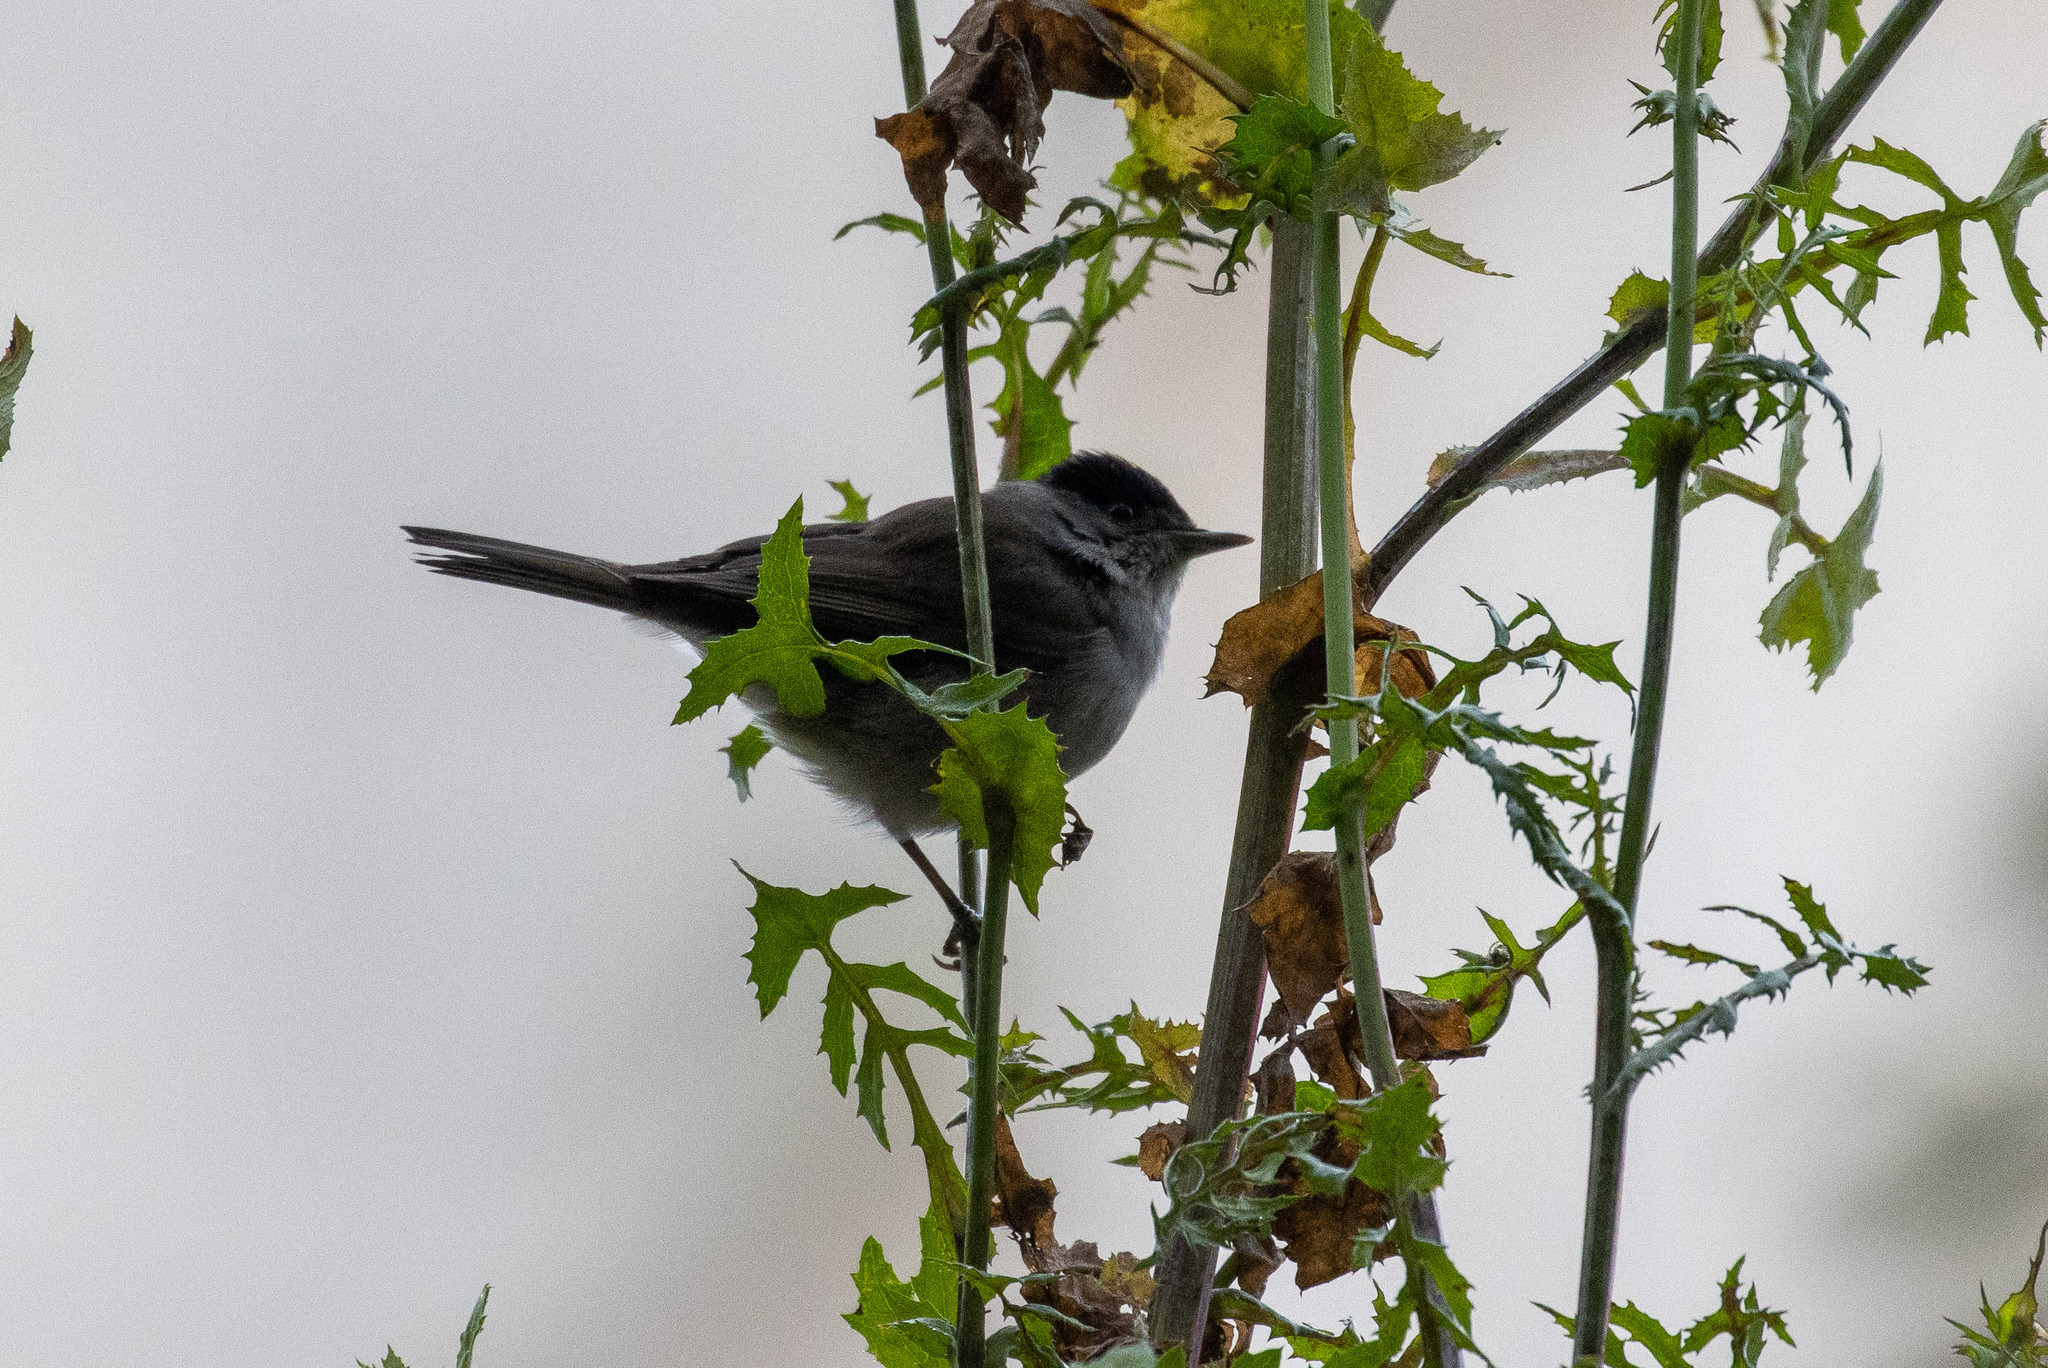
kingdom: Animalia
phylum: Chordata
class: Aves
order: Passeriformes
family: Sylviidae
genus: Sylvia
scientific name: Sylvia atricapilla
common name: Eurasian blackcap
